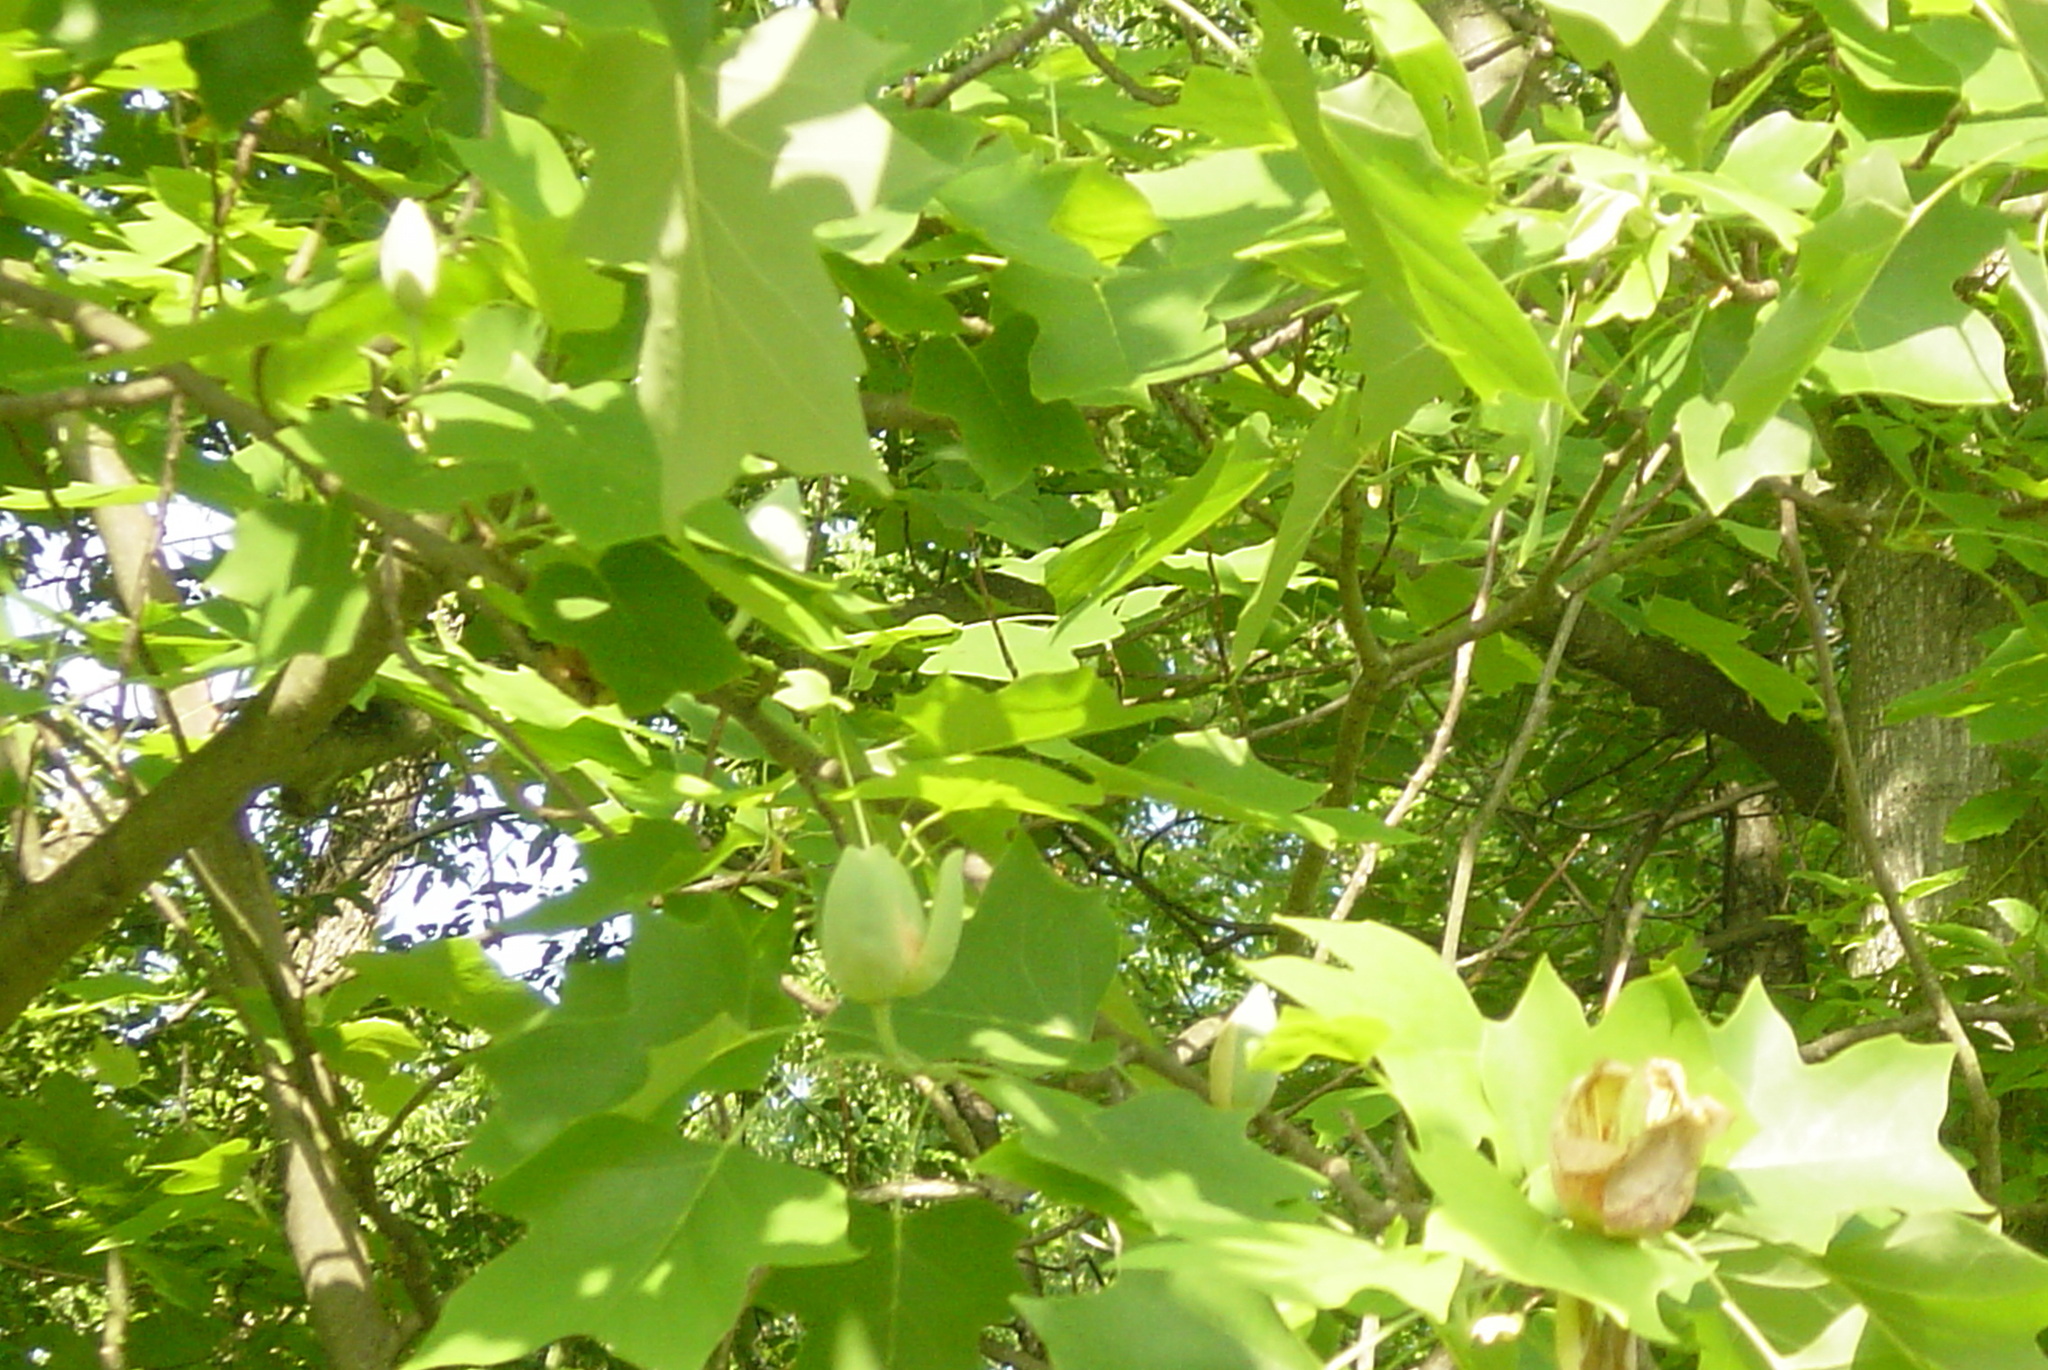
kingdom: Plantae
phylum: Tracheophyta
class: Magnoliopsida
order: Magnoliales
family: Magnoliaceae
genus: Liriodendron
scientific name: Liriodendron tulipifera
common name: Tulip tree
